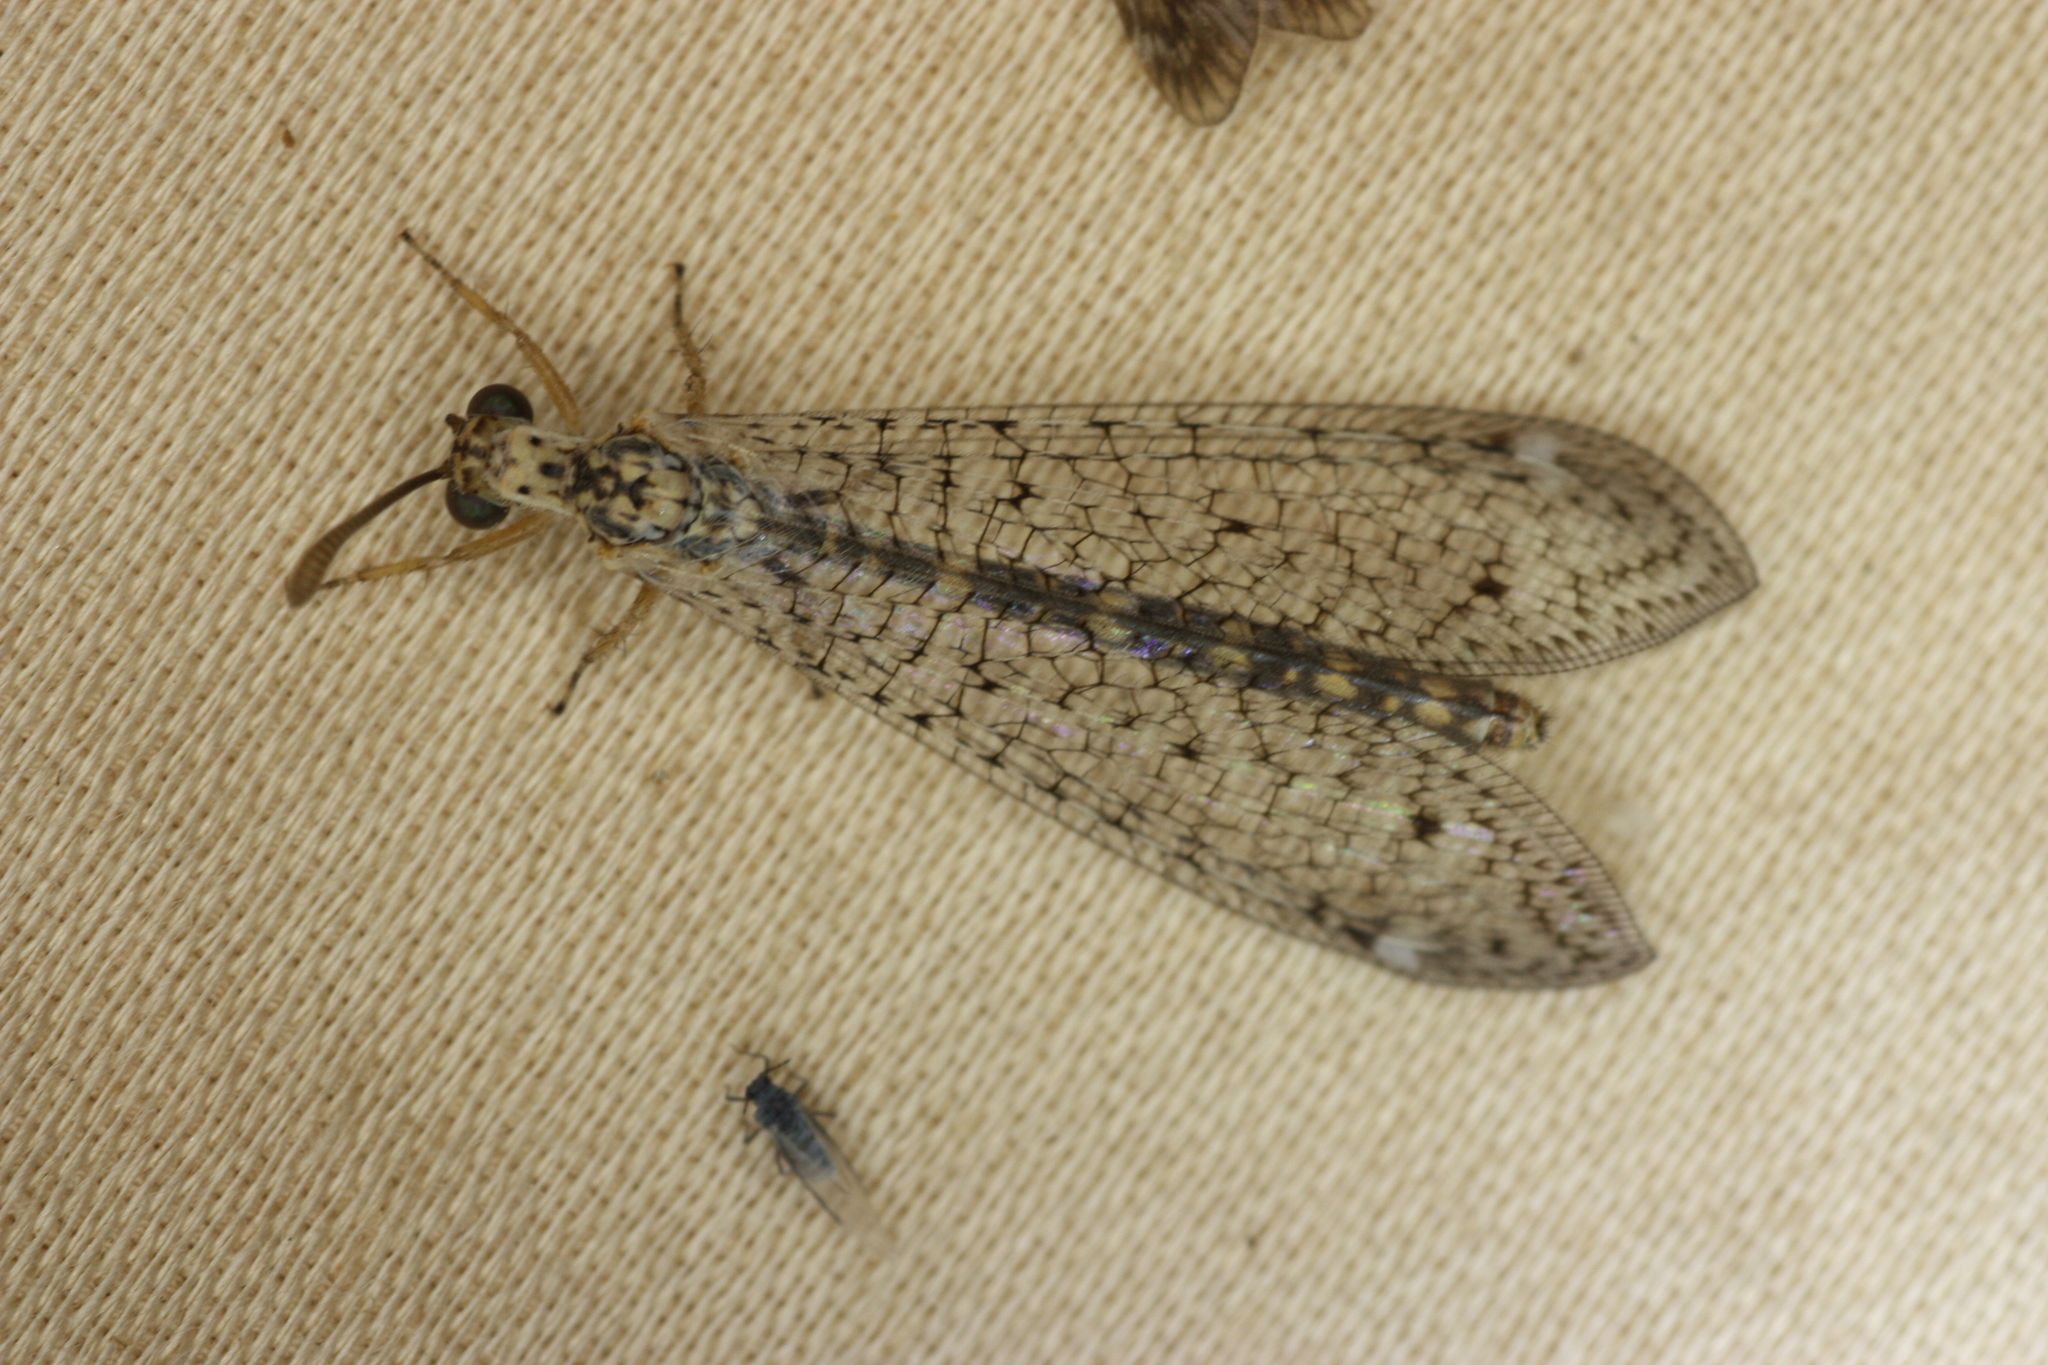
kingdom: Animalia
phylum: Arthropoda
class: Insecta
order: Neuroptera
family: Myrmeleontidae
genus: Scotoleon
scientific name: Scotoleon expansus
